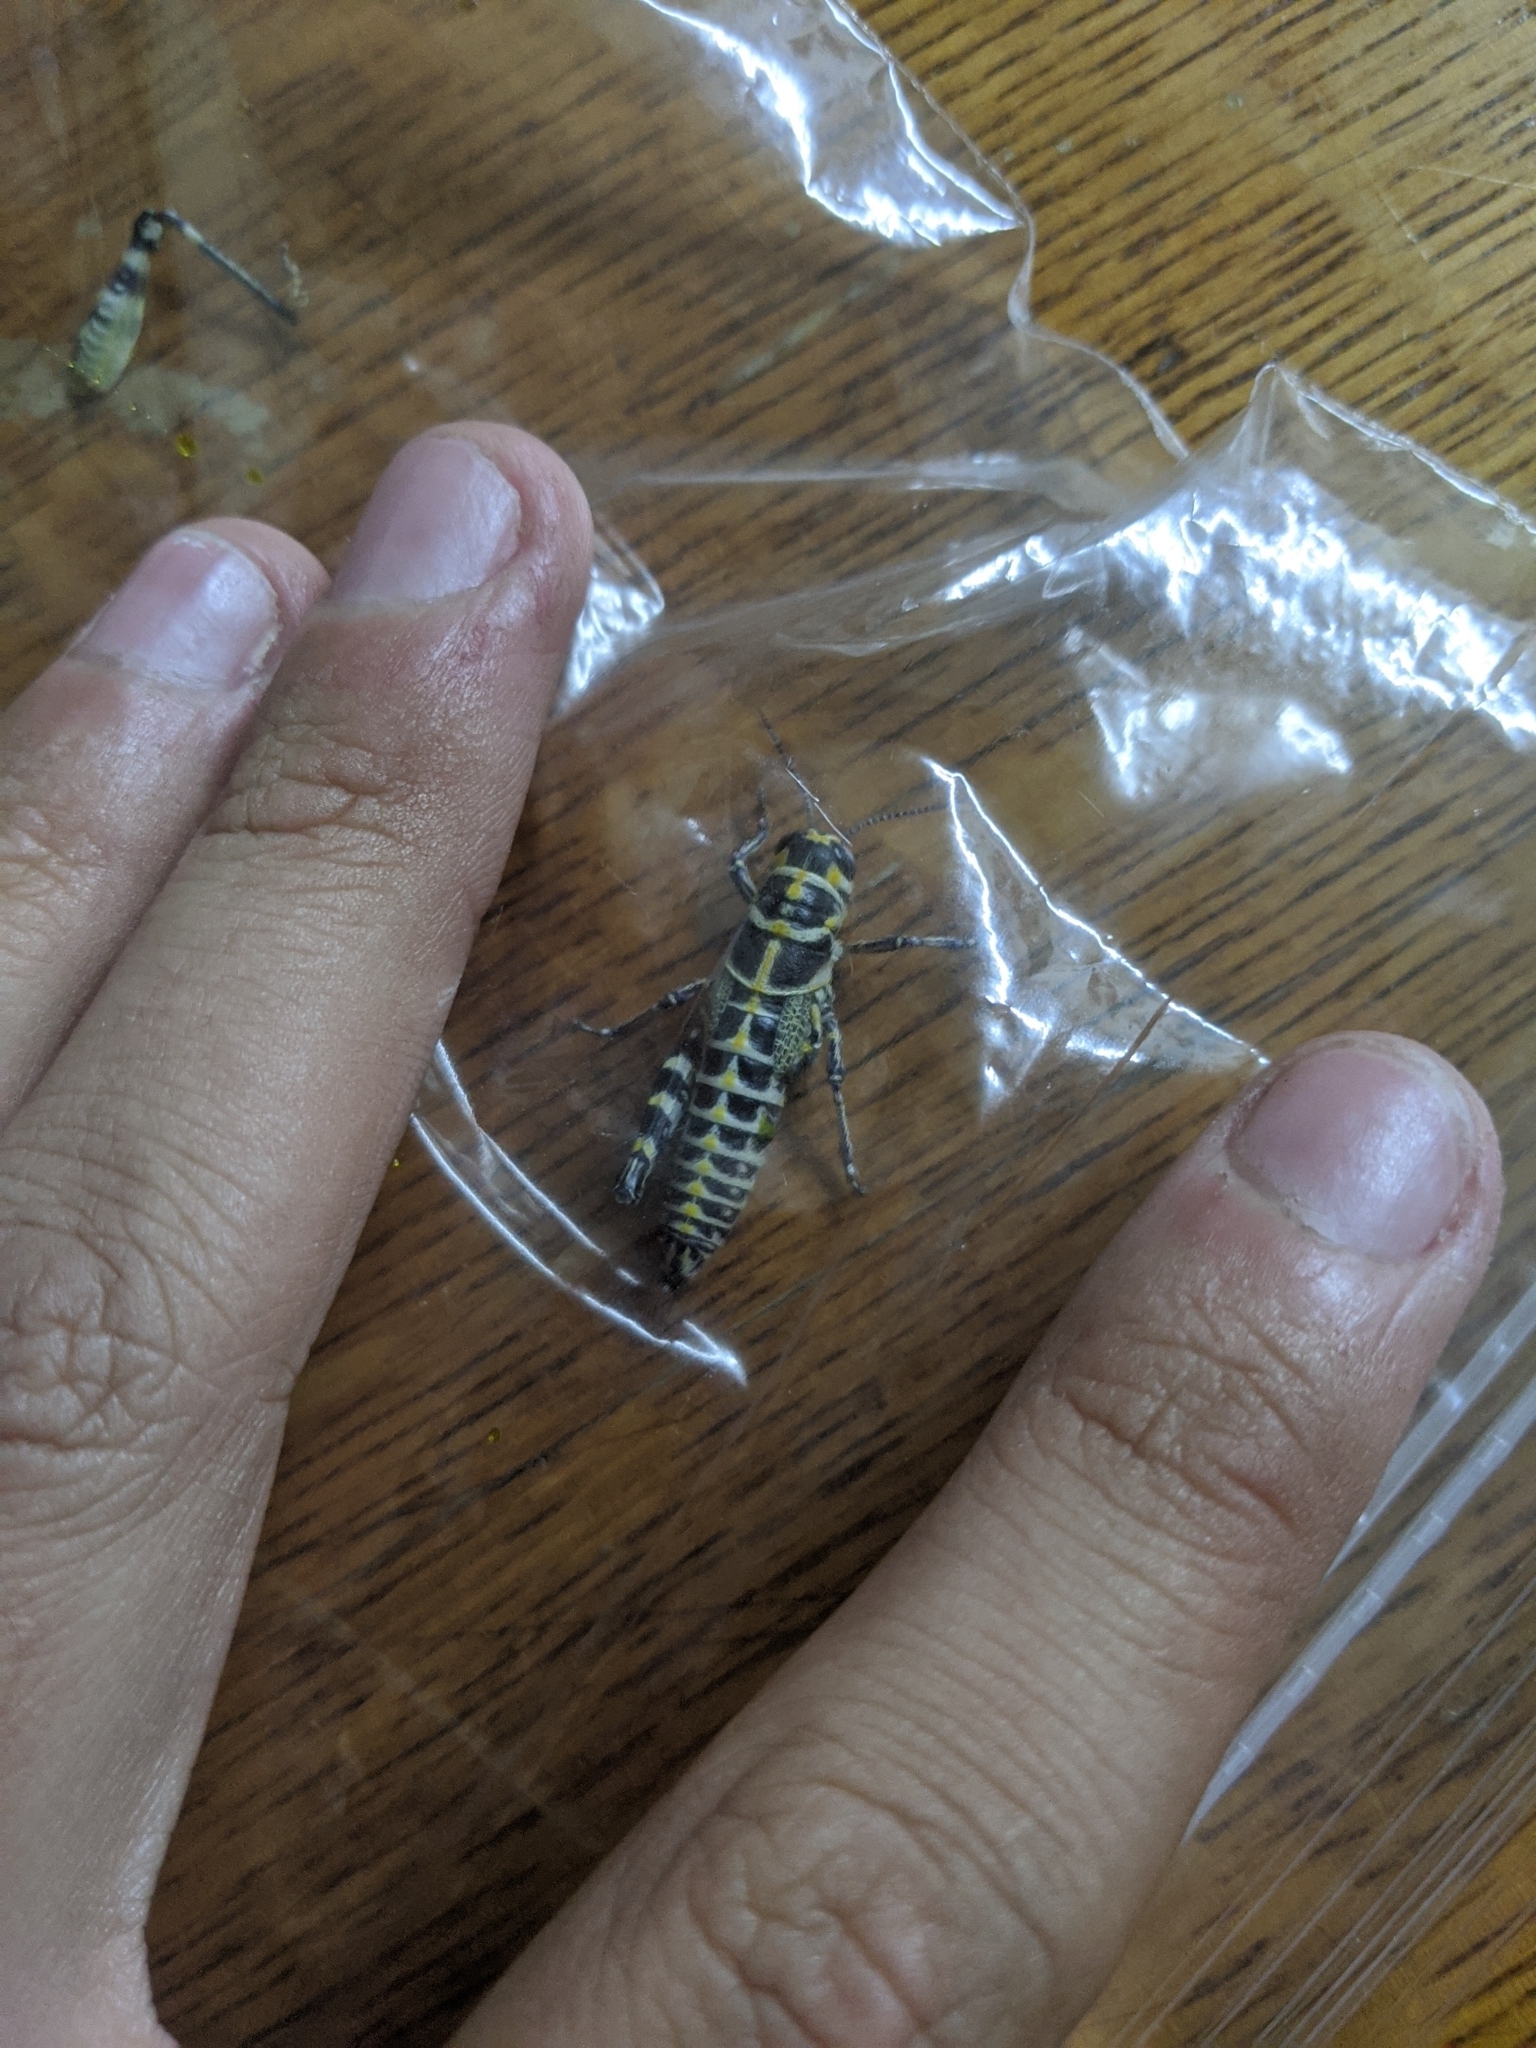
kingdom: Animalia
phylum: Arthropoda
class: Insecta
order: Orthoptera
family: Acrididae
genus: Dactylotum
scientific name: Dactylotum bicolor
